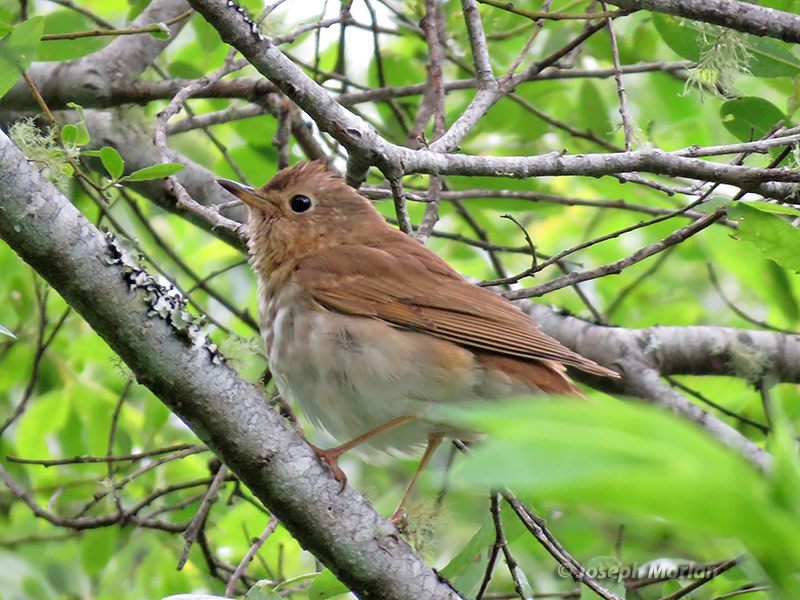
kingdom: Animalia
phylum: Chordata
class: Aves
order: Passeriformes
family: Turdidae
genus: Catharus
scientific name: Catharus ustulatus
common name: Swainson's thrush
